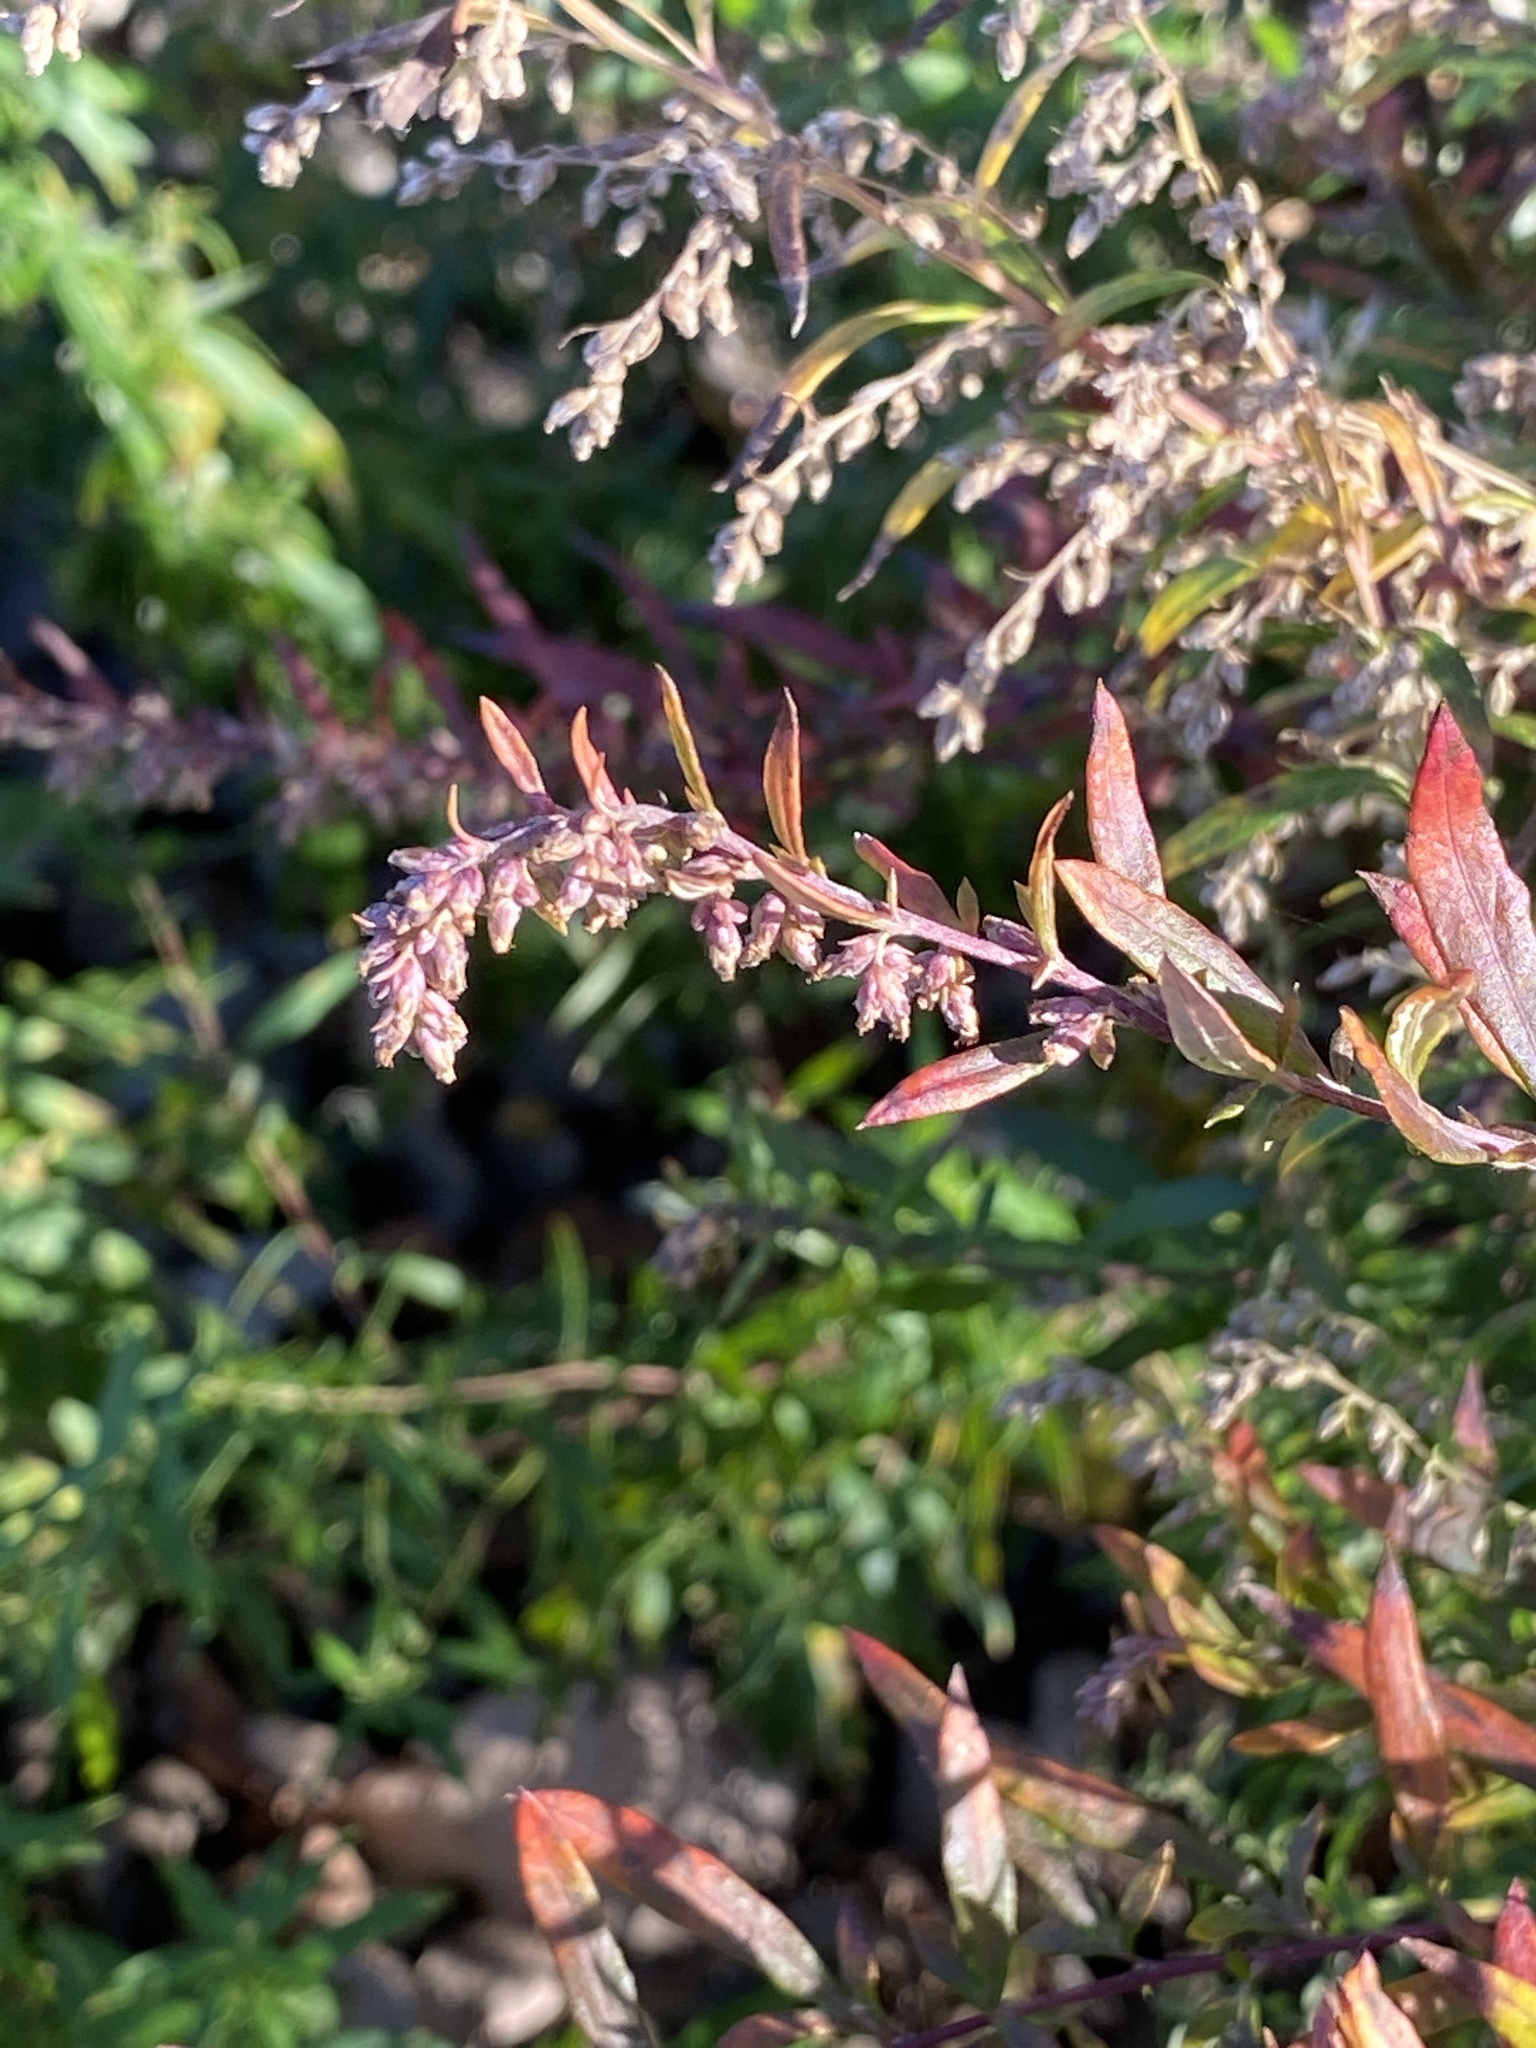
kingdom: Plantae
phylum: Tracheophyta
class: Magnoliopsida
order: Asterales
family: Asteraceae
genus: Artemisia
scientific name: Artemisia vulgaris
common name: Mugwort
